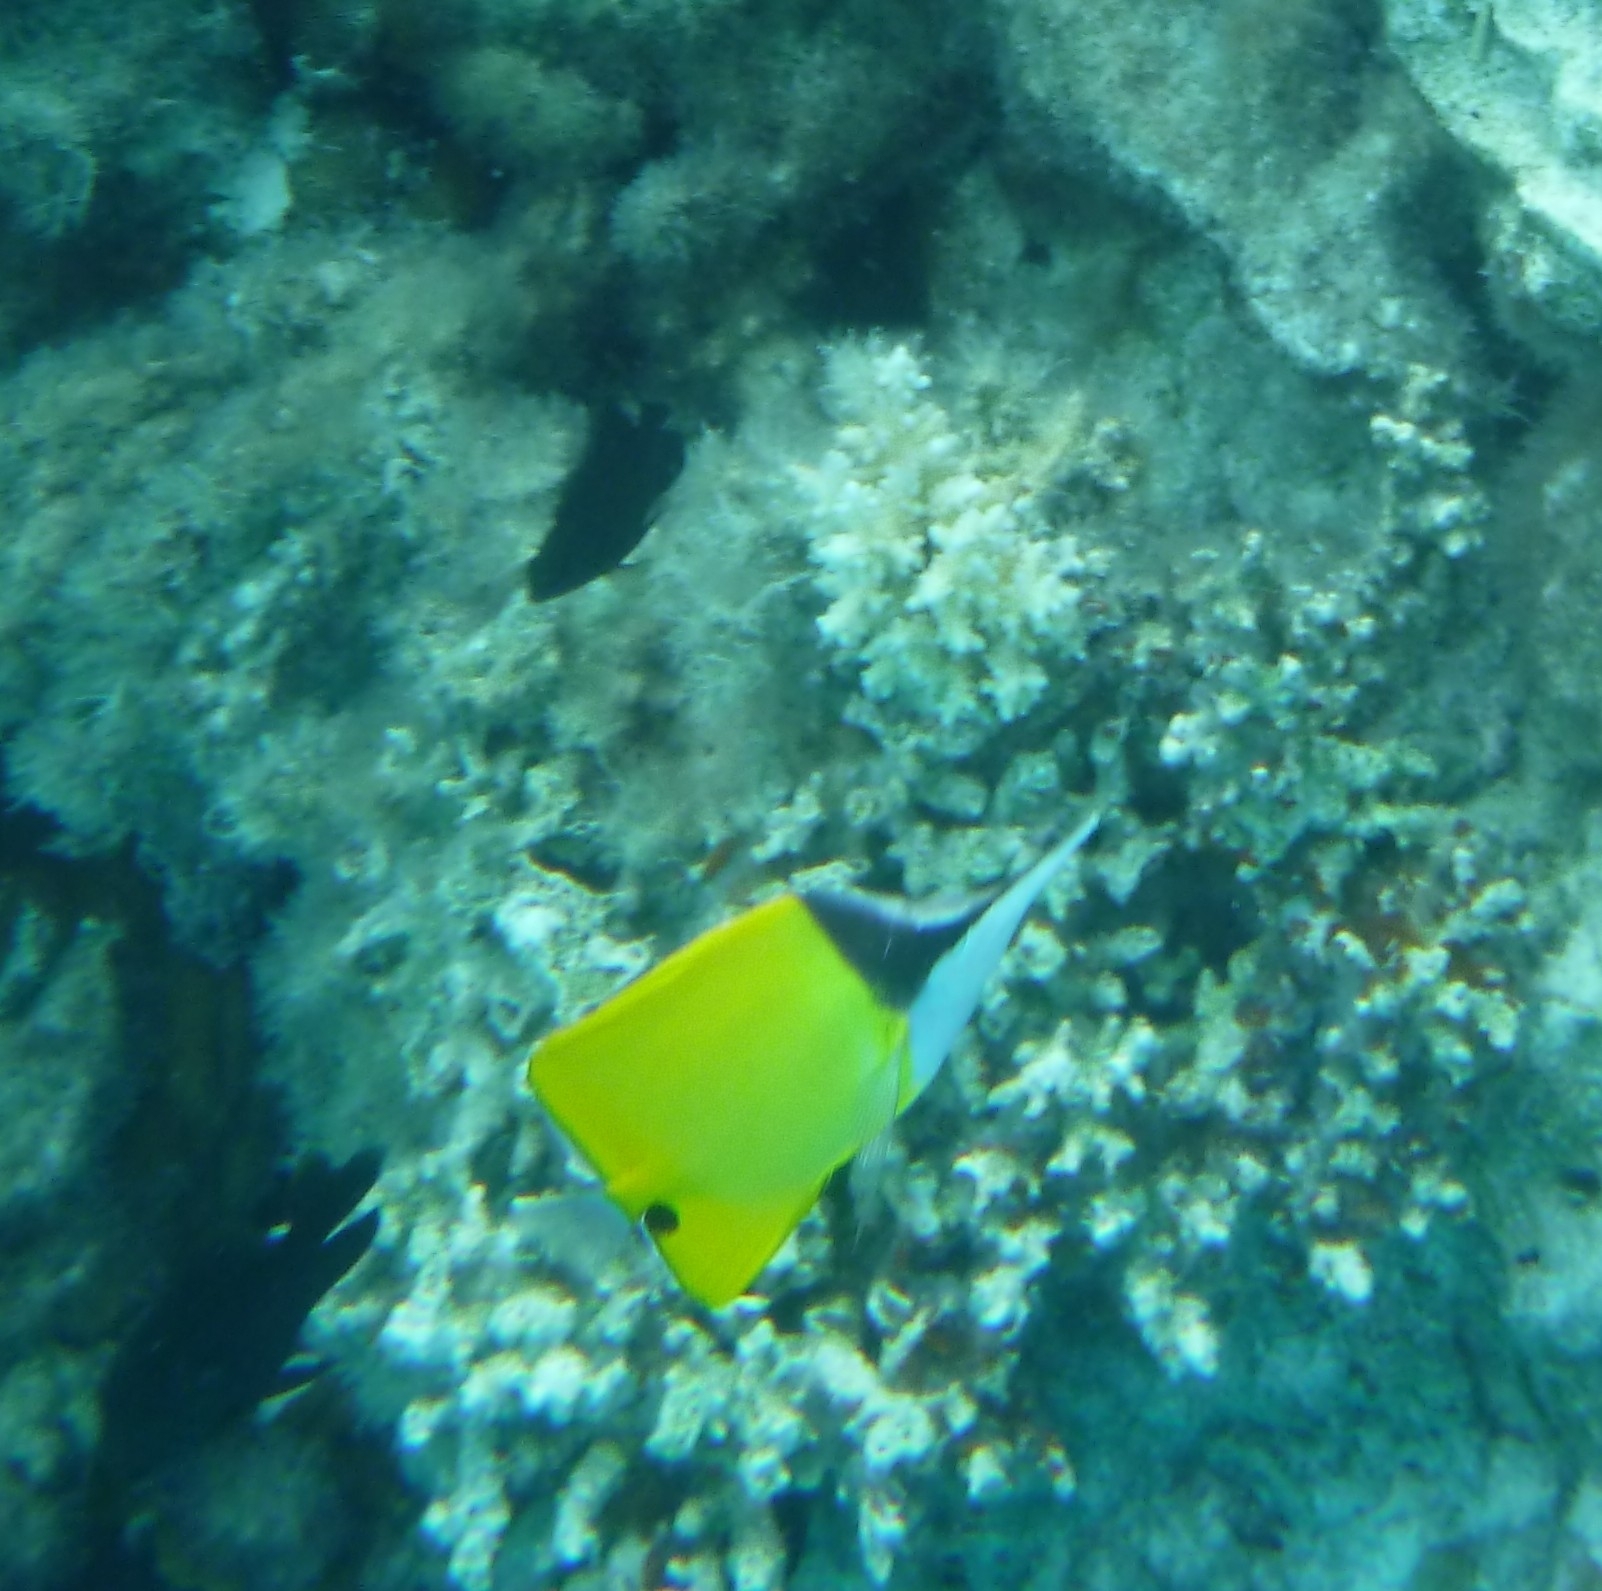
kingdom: Animalia
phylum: Chordata
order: Perciformes
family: Chaetodontidae
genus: Forcipiger
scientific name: Forcipiger flavissimus
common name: Forcepsfish
